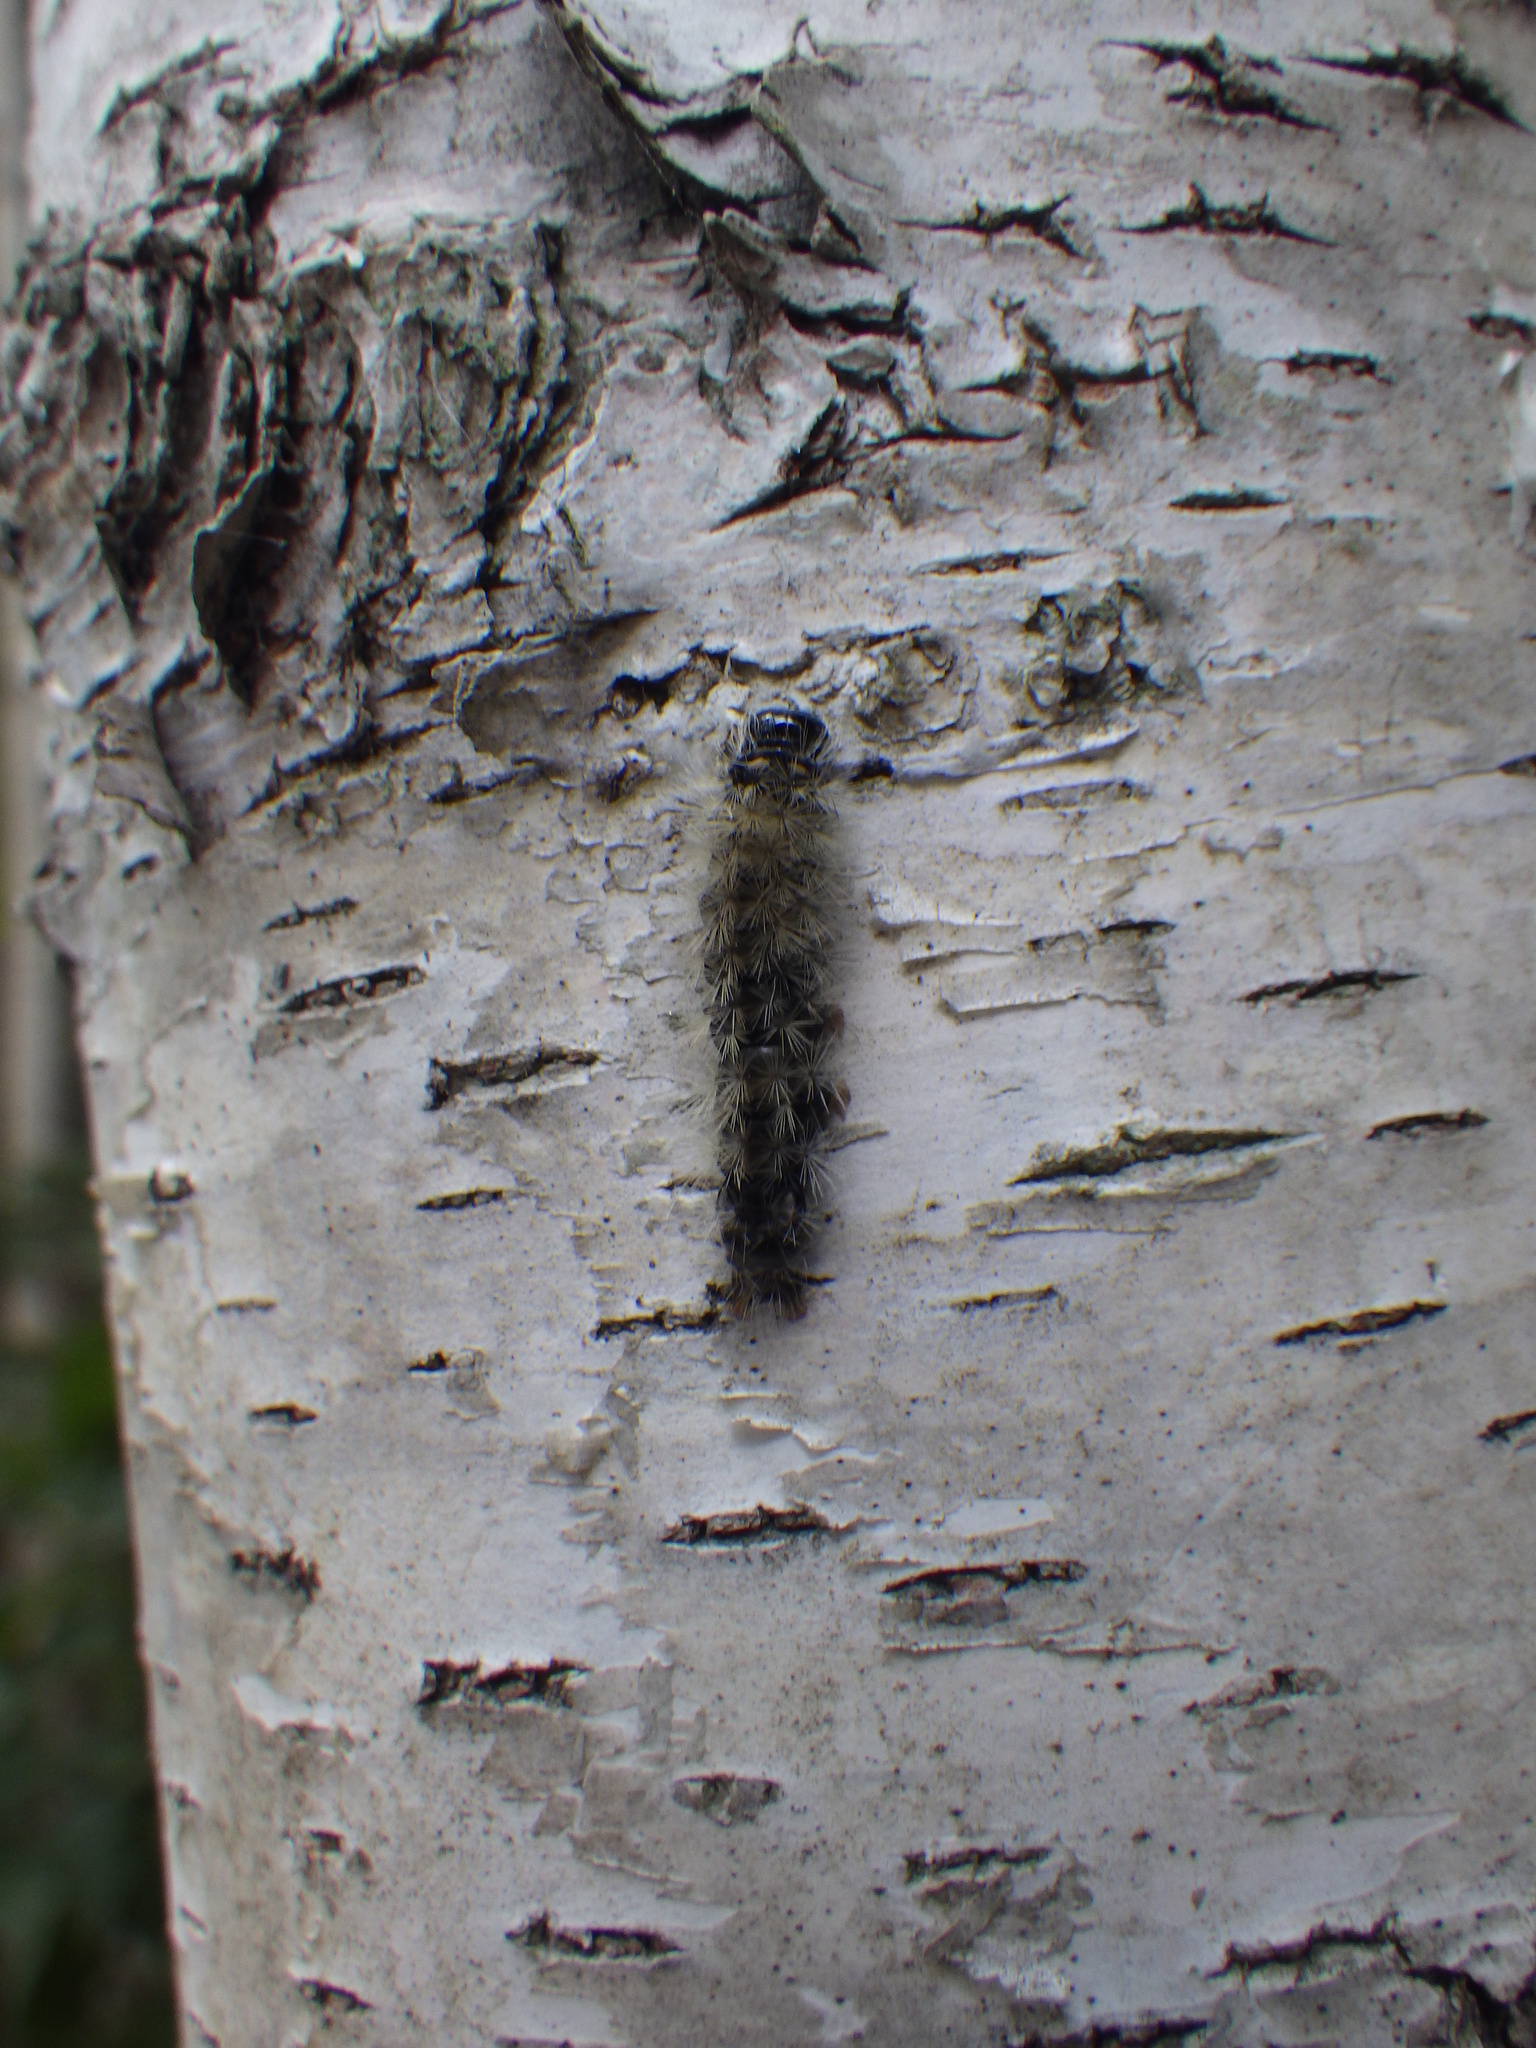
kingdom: Animalia
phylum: Arthropoda
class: Insecta
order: Lepidoptera
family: Erebidae
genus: Halysidota
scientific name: Halysidota tessellaris
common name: Banded tussock moth
